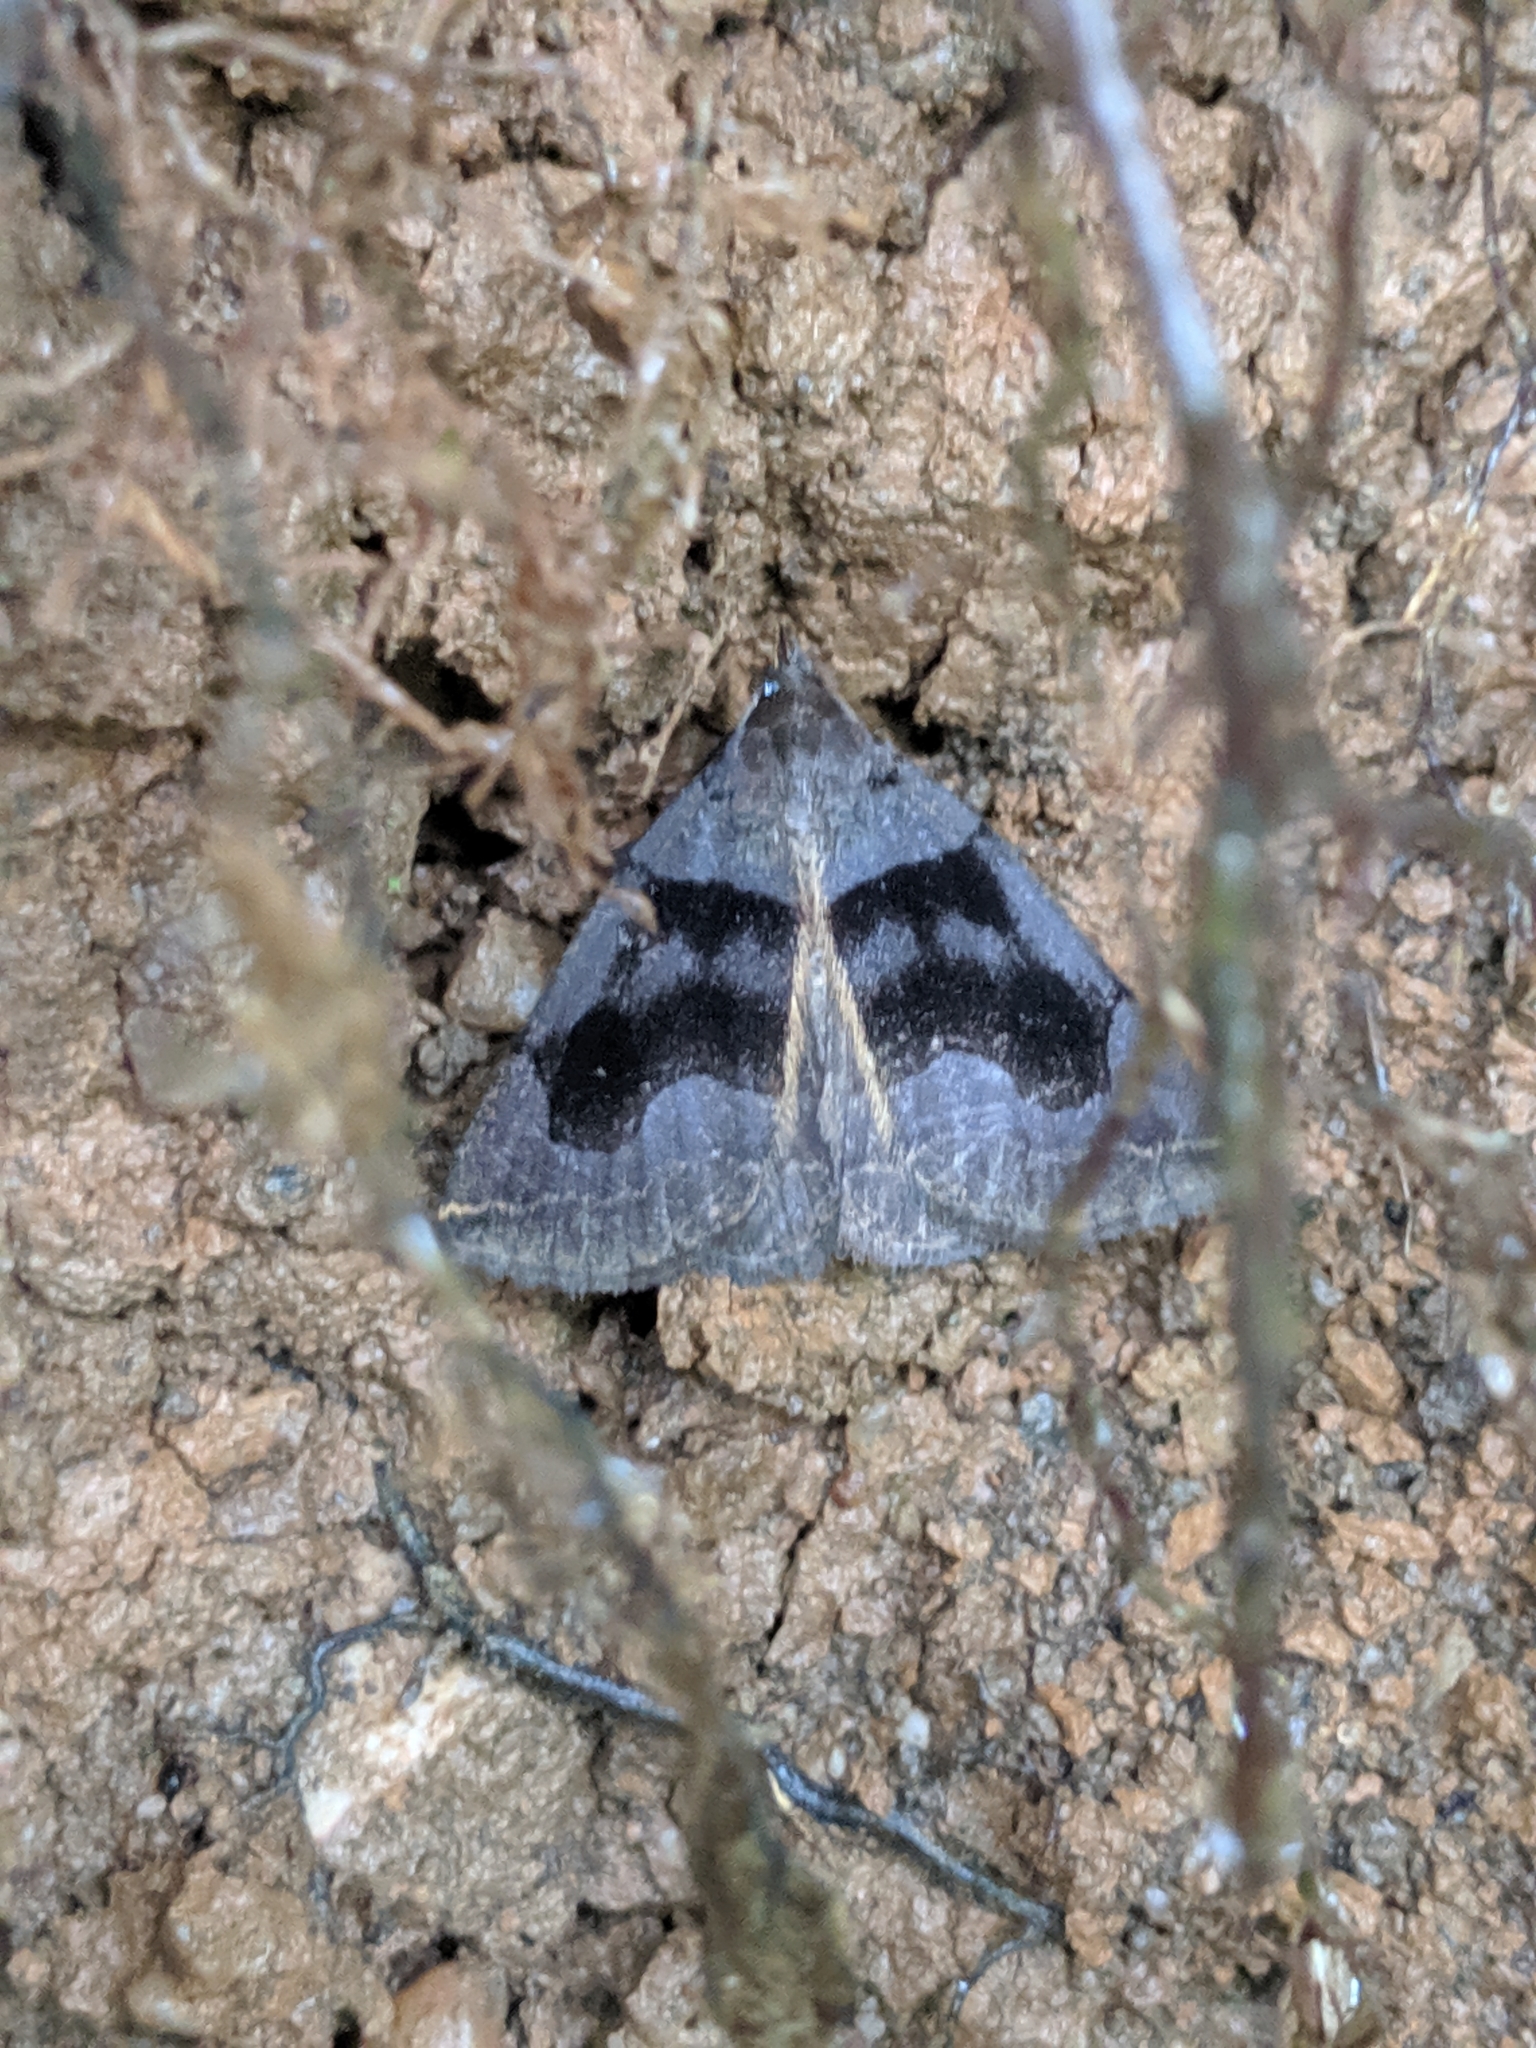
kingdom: Animalia
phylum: Arthropoda
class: Insecta
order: Lepidoptera
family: Erebidae
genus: Zanclognatha
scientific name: Zanclognatha laevigata
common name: Variable fan-foot
